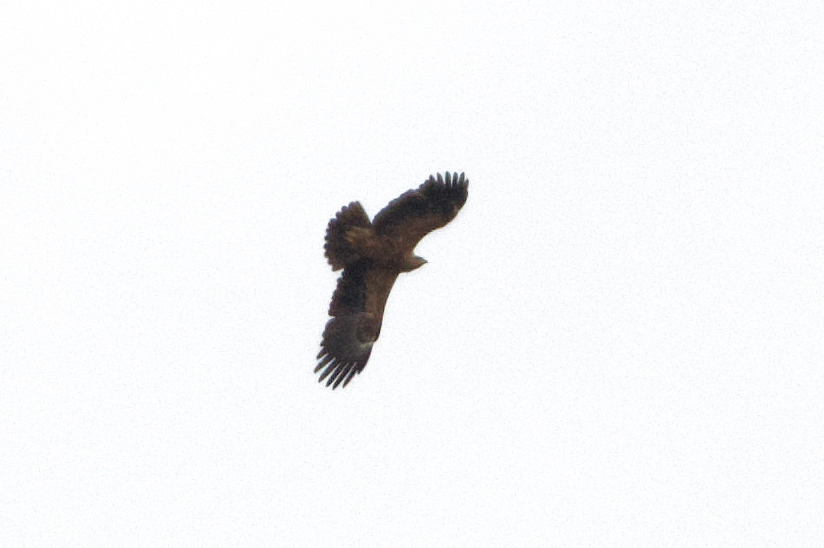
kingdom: Animalia
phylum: Chordata
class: Aves
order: Accipitriformes
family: Accipitridae
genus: Aquila
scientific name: Aquila pomarina
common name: Lesser spotted eagle
